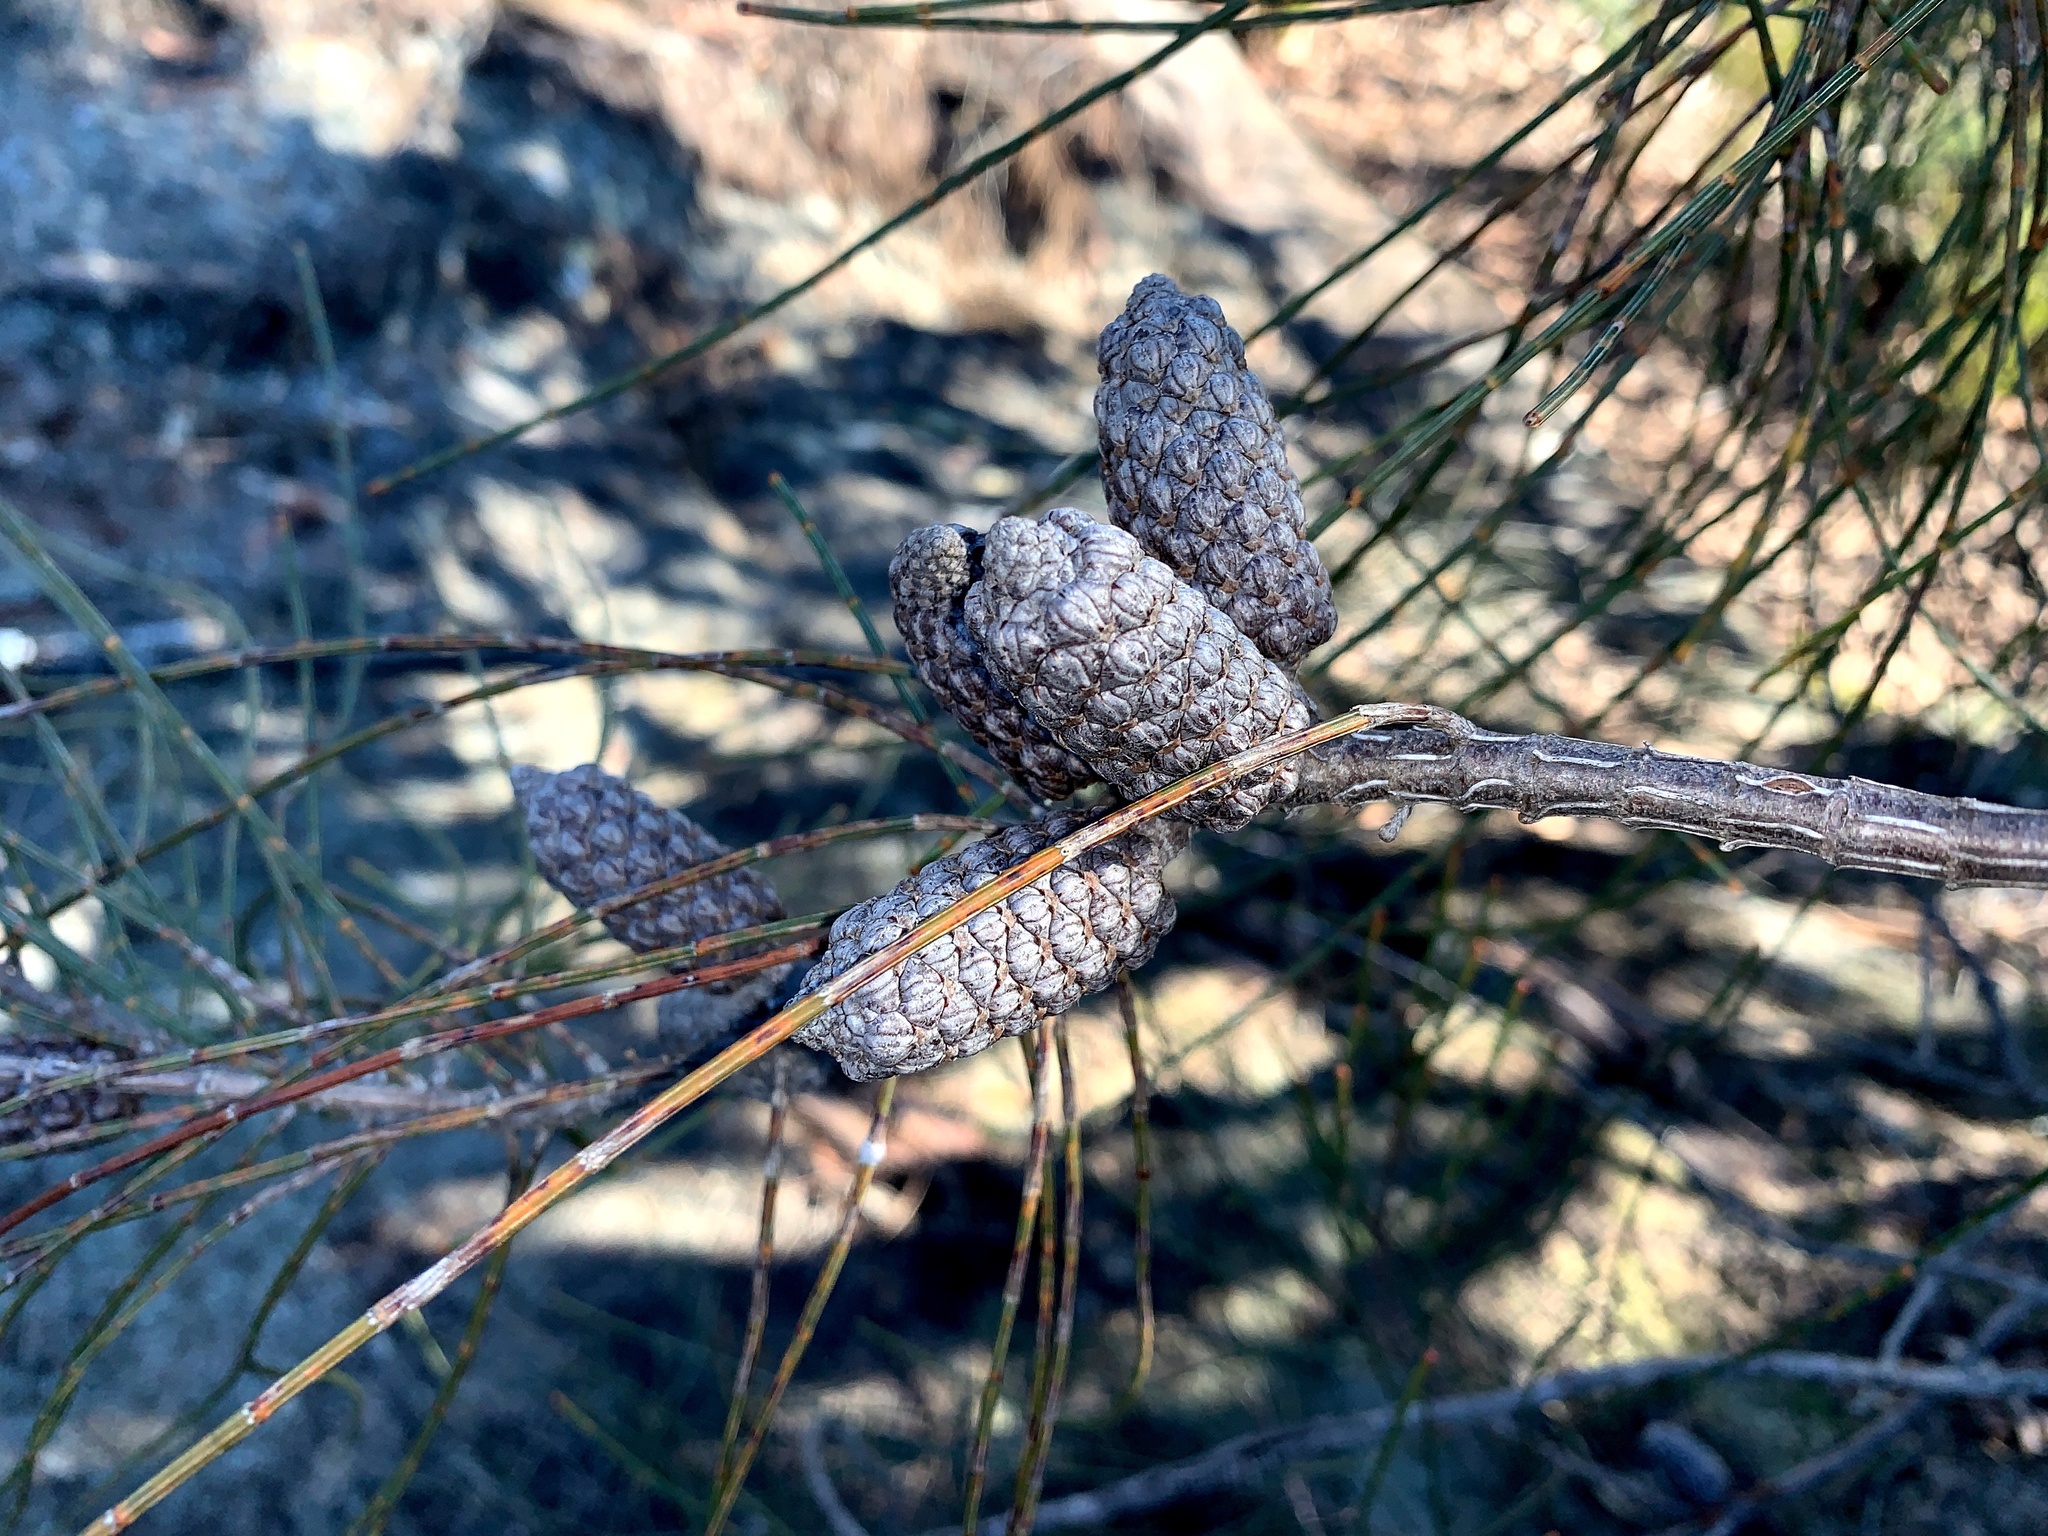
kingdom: Plantae
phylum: Tracheophyta
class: Magnoliopsida
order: Fagales
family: Casuarinaceae
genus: Allocasuarina
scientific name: Allocasuarina distyla
